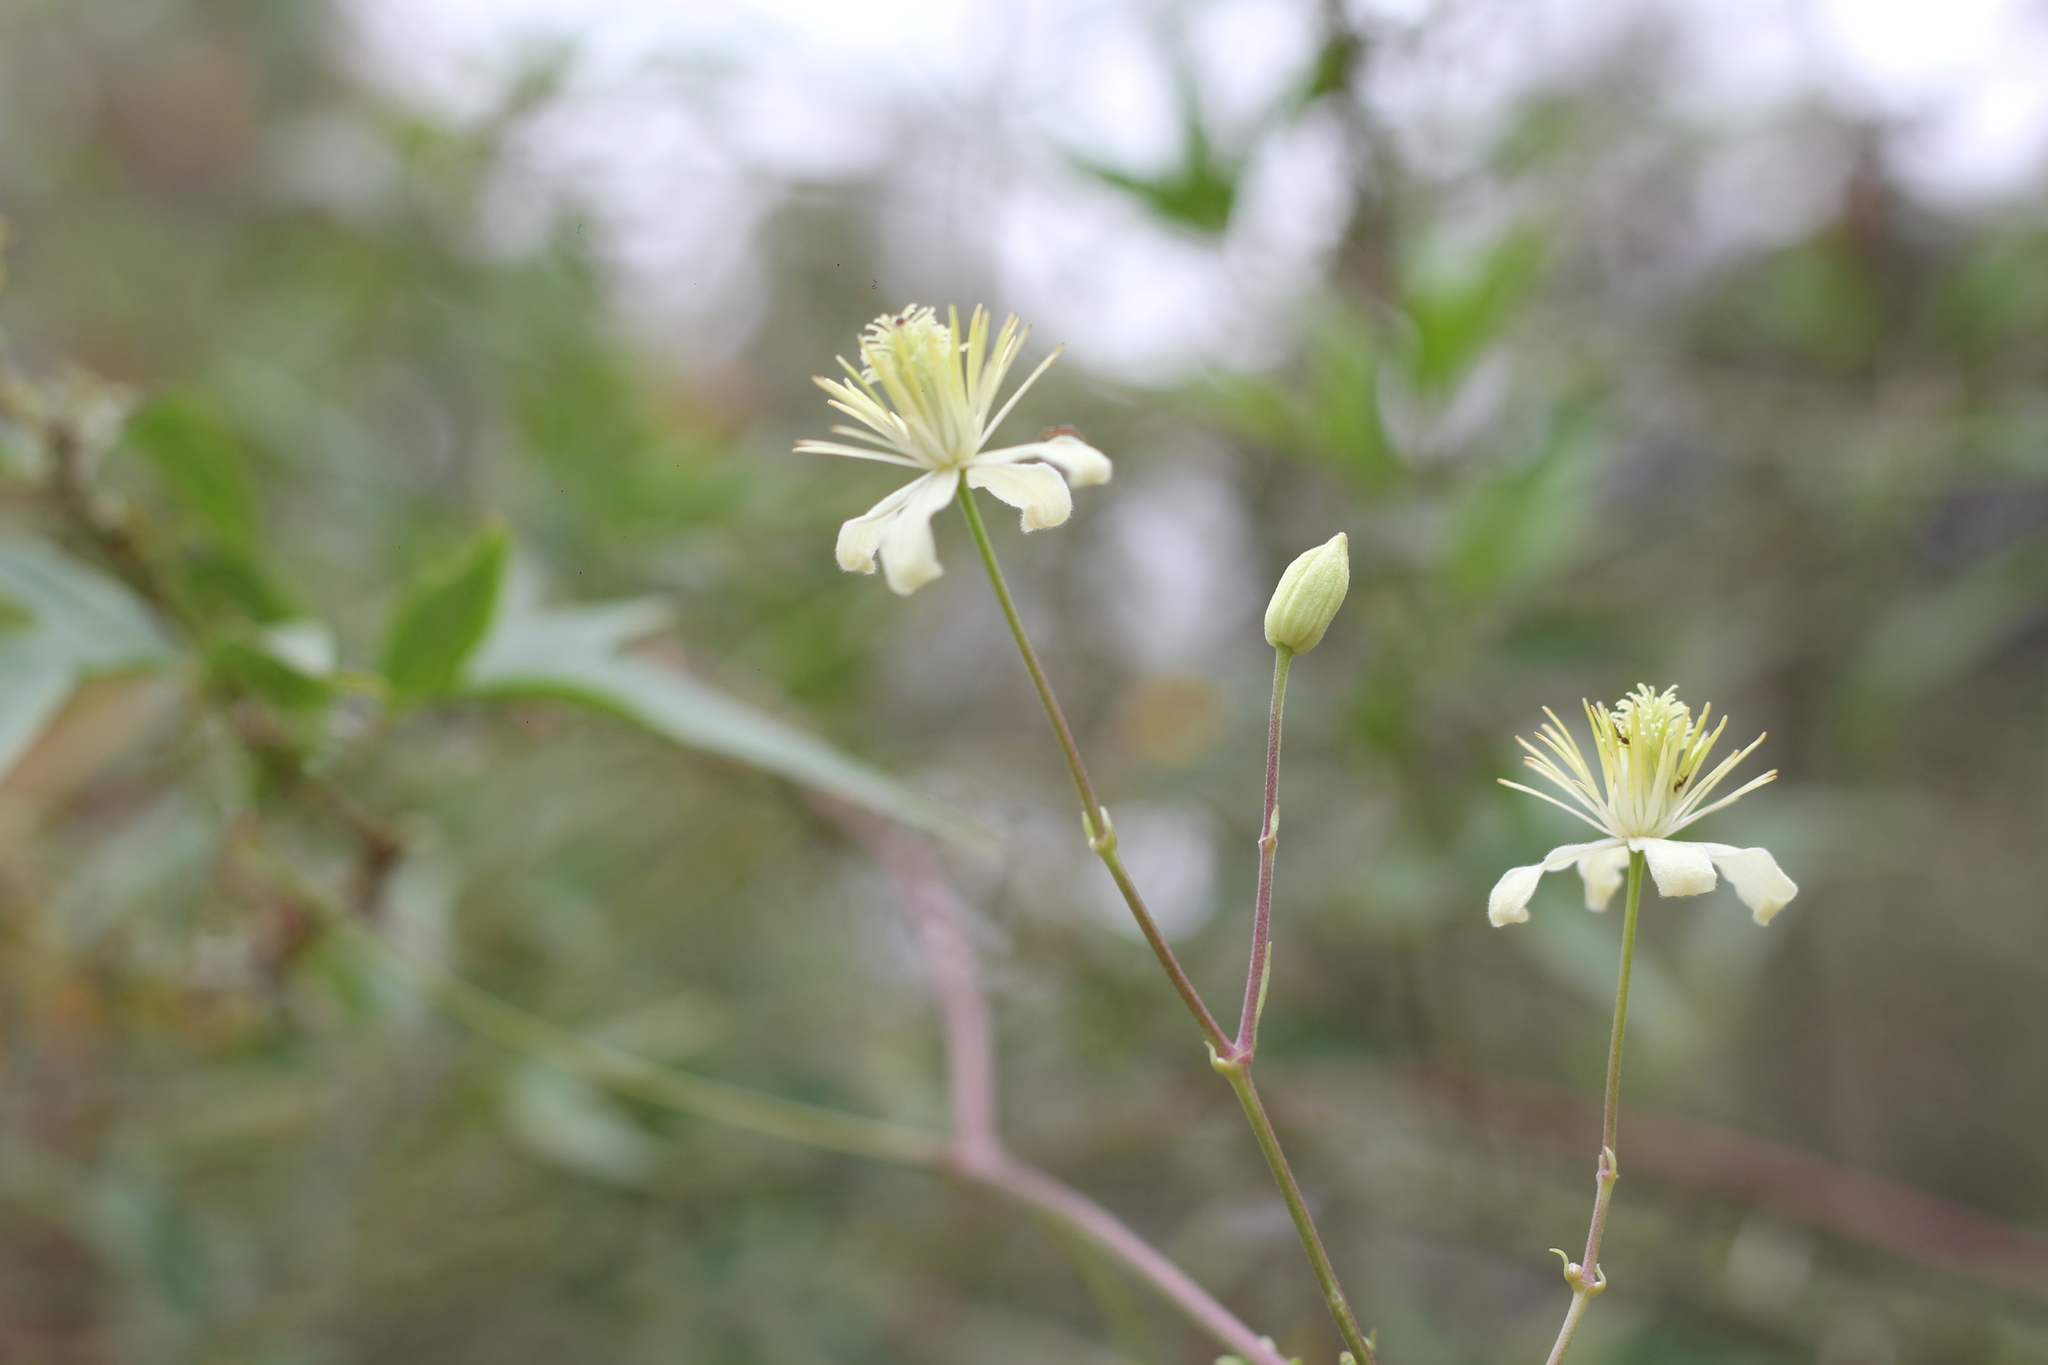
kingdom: Plantae
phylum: Tracheophyta
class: Magnoliopsida
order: Ranunculales
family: Ranunculaceae
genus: Clematis
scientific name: Clematis montevidensis
